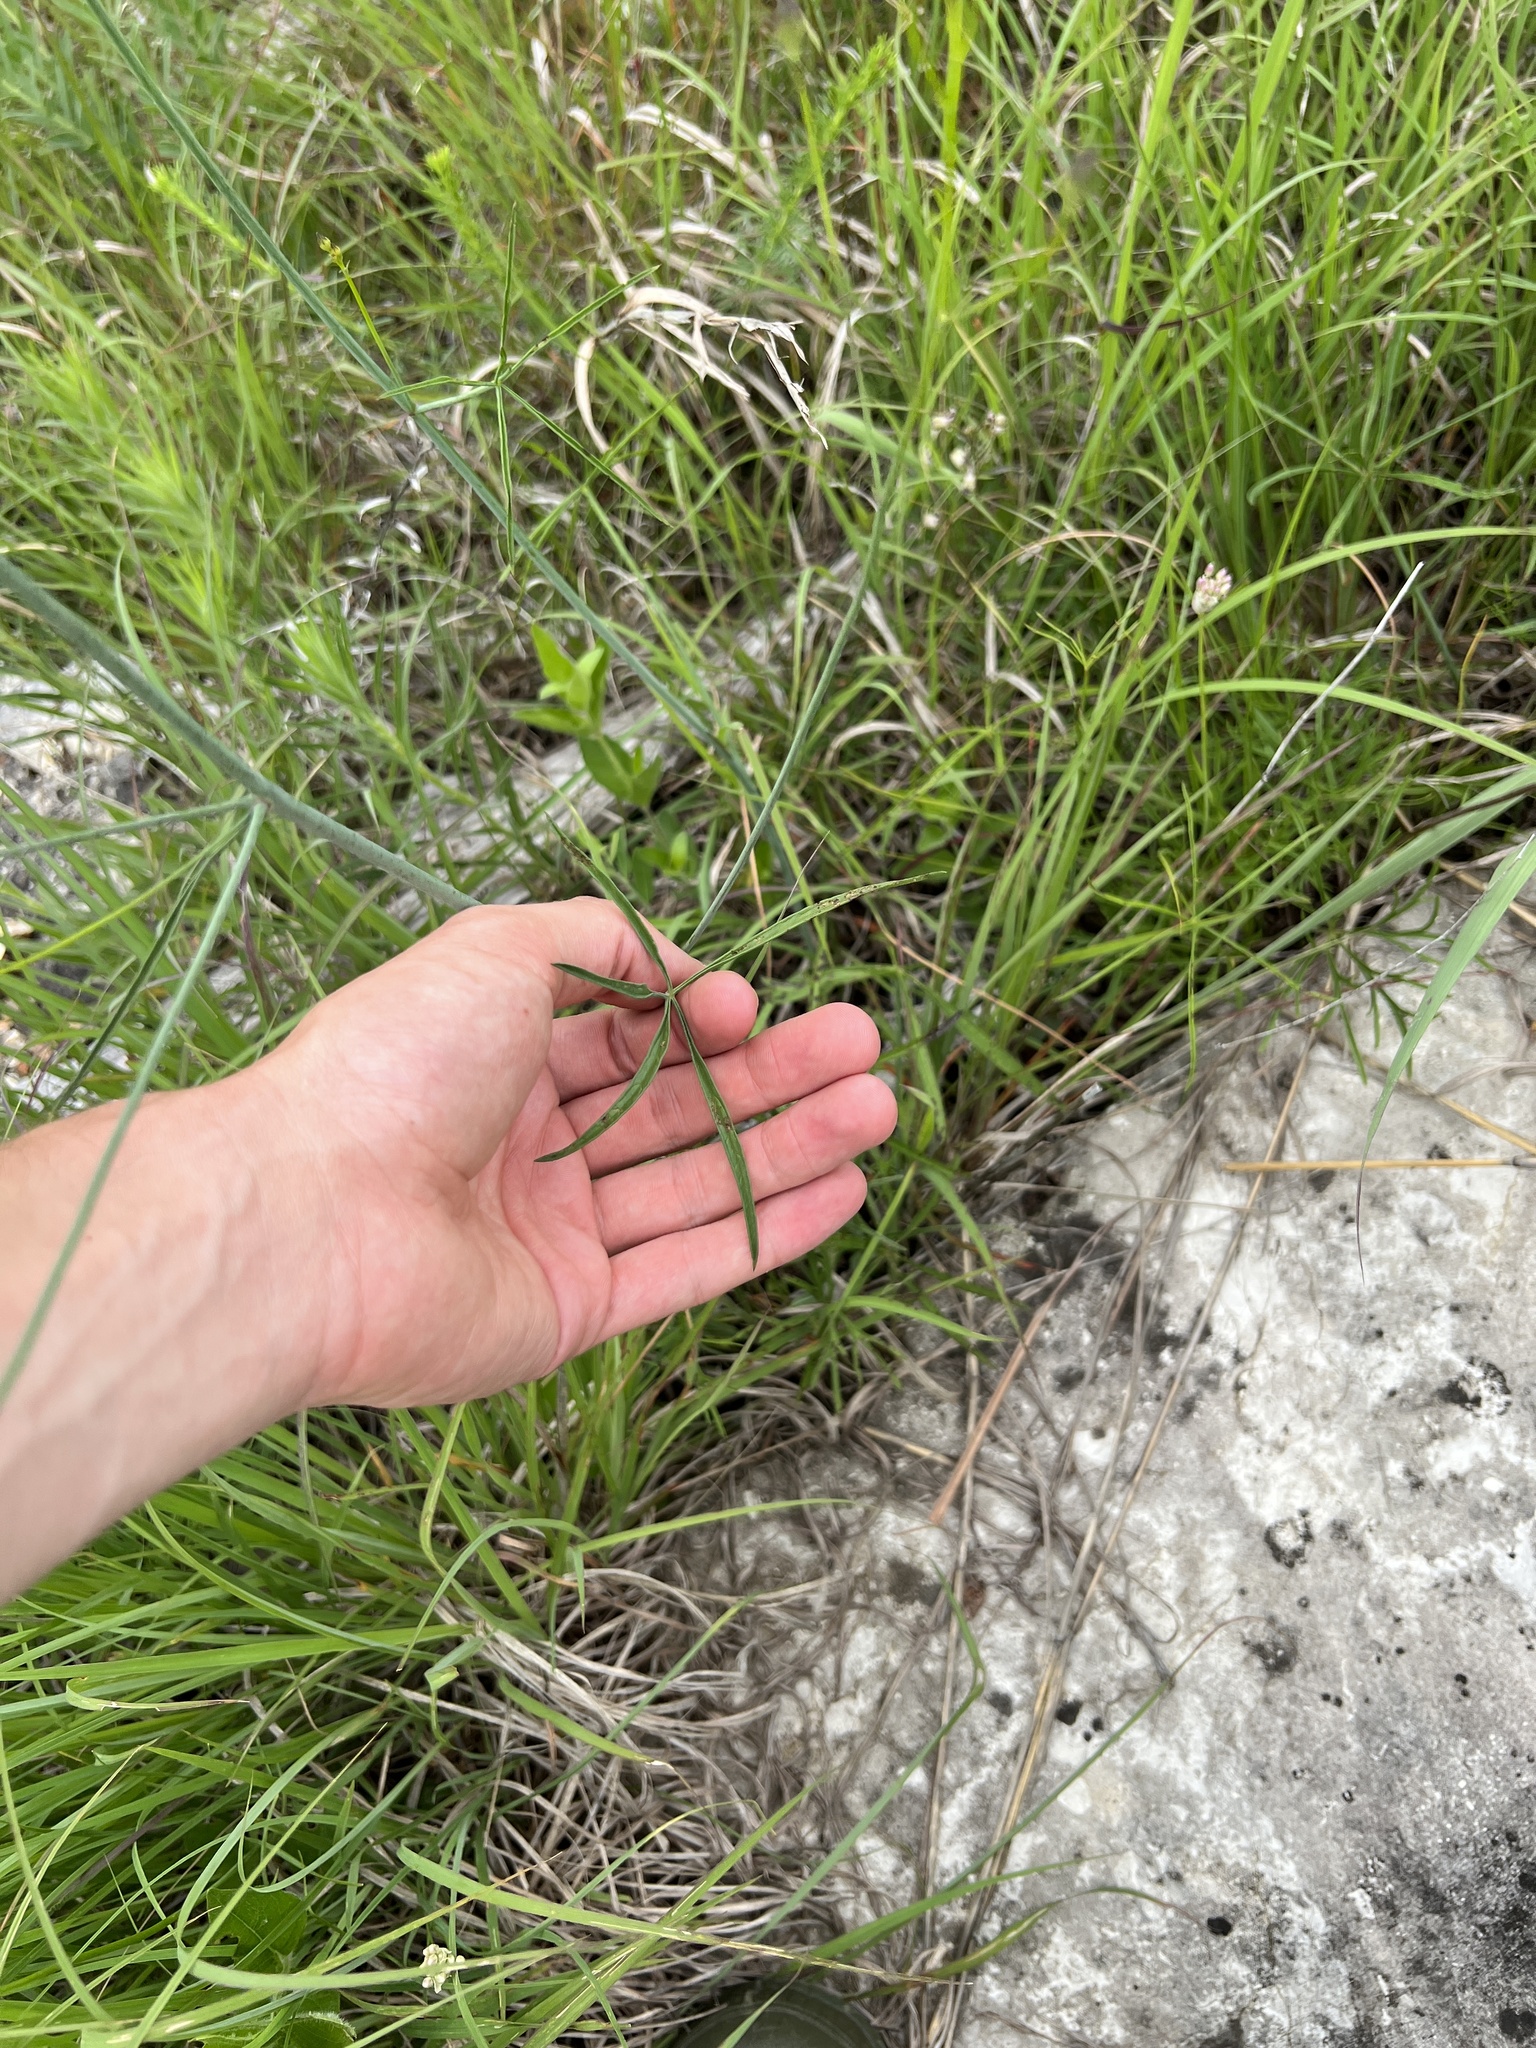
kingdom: Plantae
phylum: Tracheophyta
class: Magnoliopsida
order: Malvales
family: Malvaceae
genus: Callirhoe
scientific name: Callirhoe digitata
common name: Finger poppy-mallow
